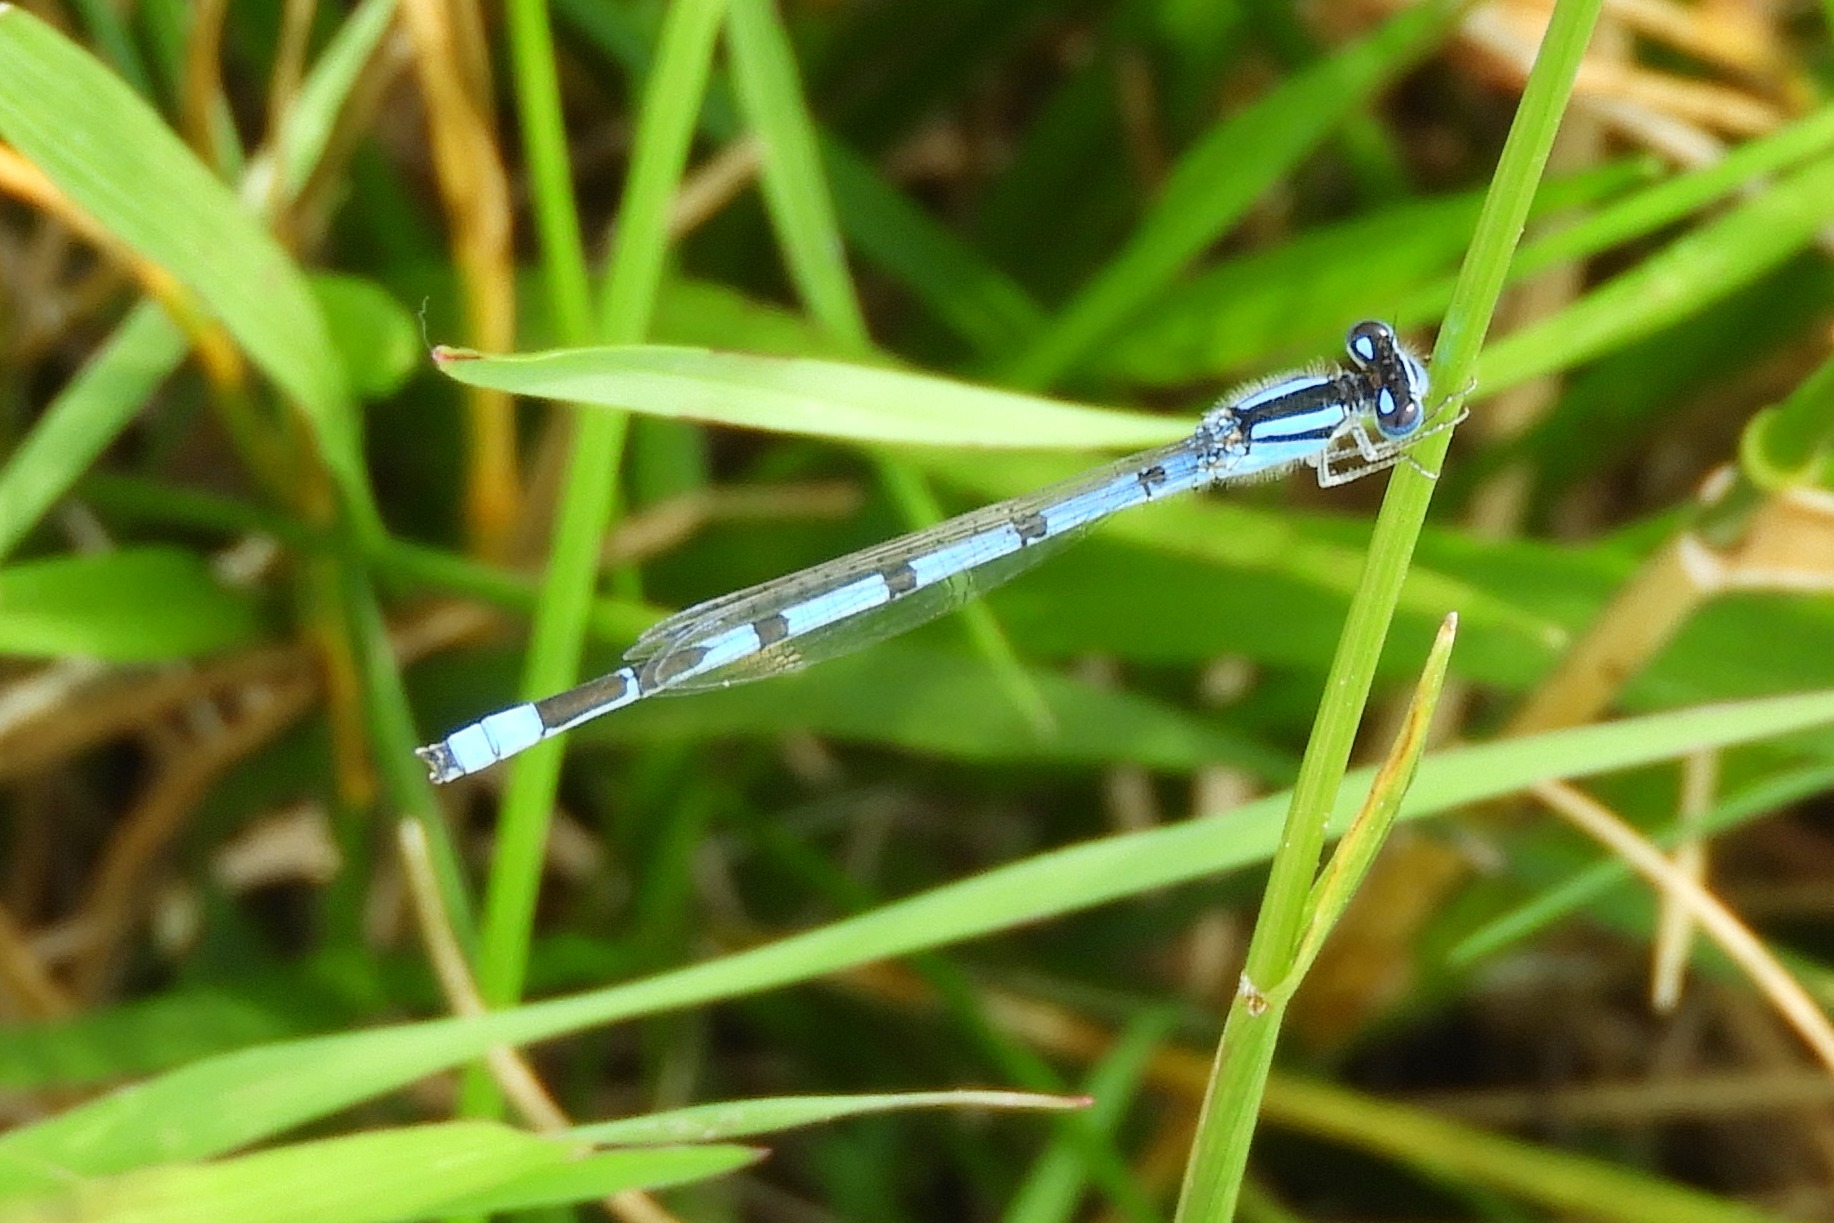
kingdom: Animalia
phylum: Arthropoda
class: Insecta
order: Odonata
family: Coenagrionidae
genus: Enallagma
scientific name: Enallagma civile
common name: Damselfly
